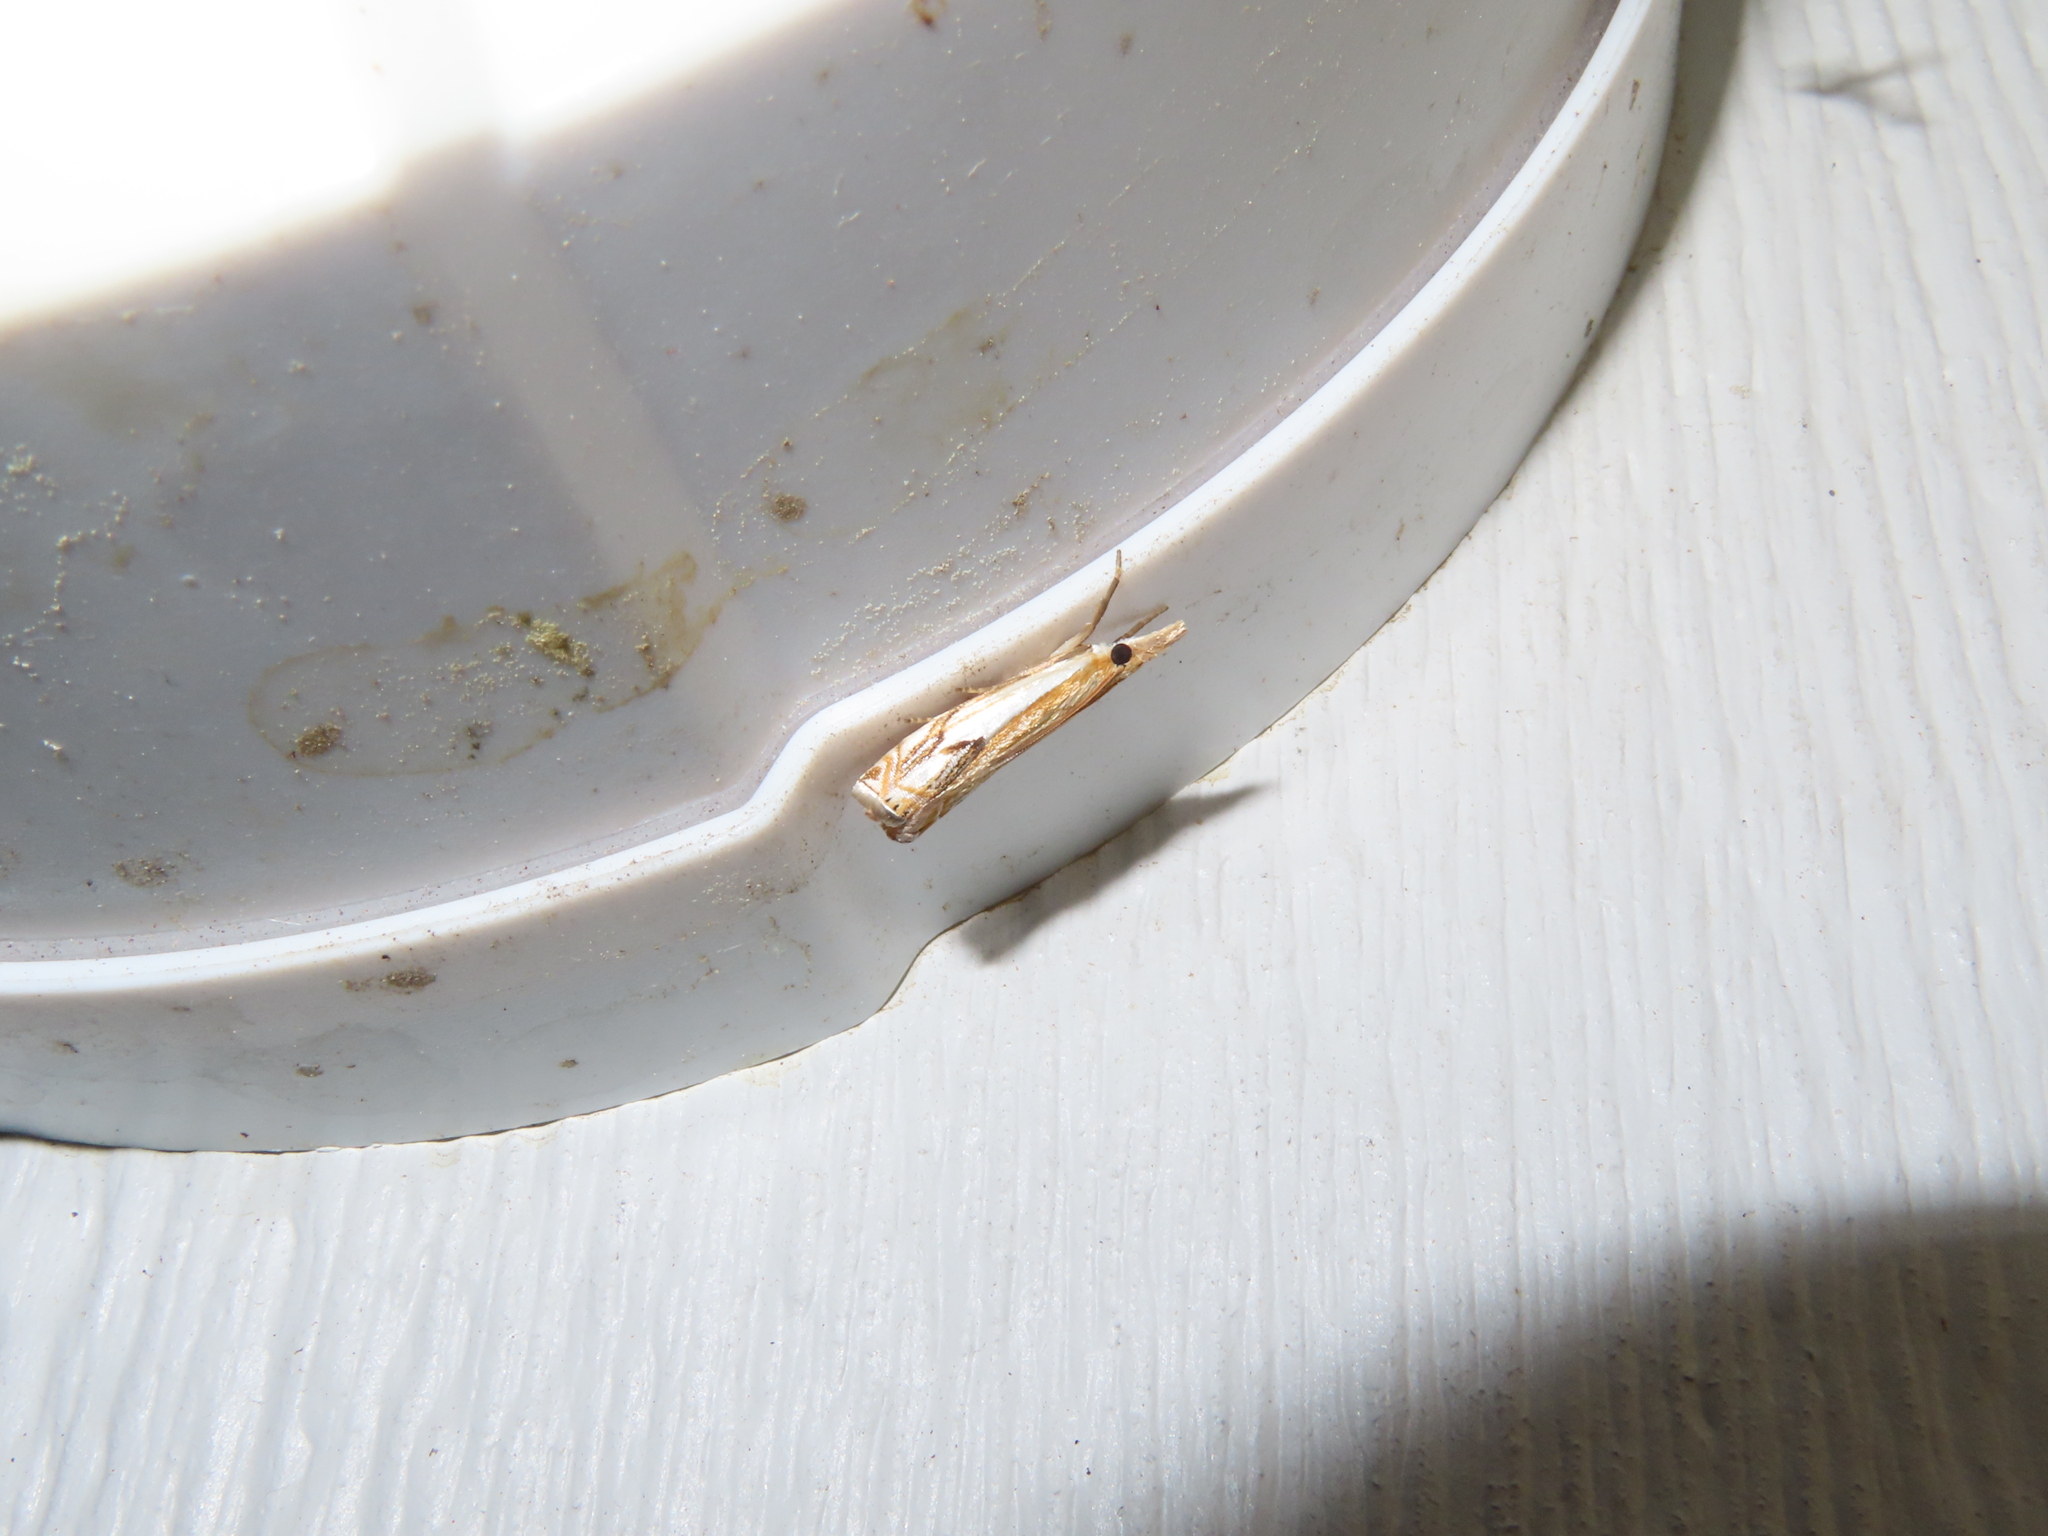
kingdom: Animalia
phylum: Arthropoda
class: Insecta
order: Lepidoptera
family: Crambidae
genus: Crambus
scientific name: Crambus agitatellus
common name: Double-banded grass-veneer
